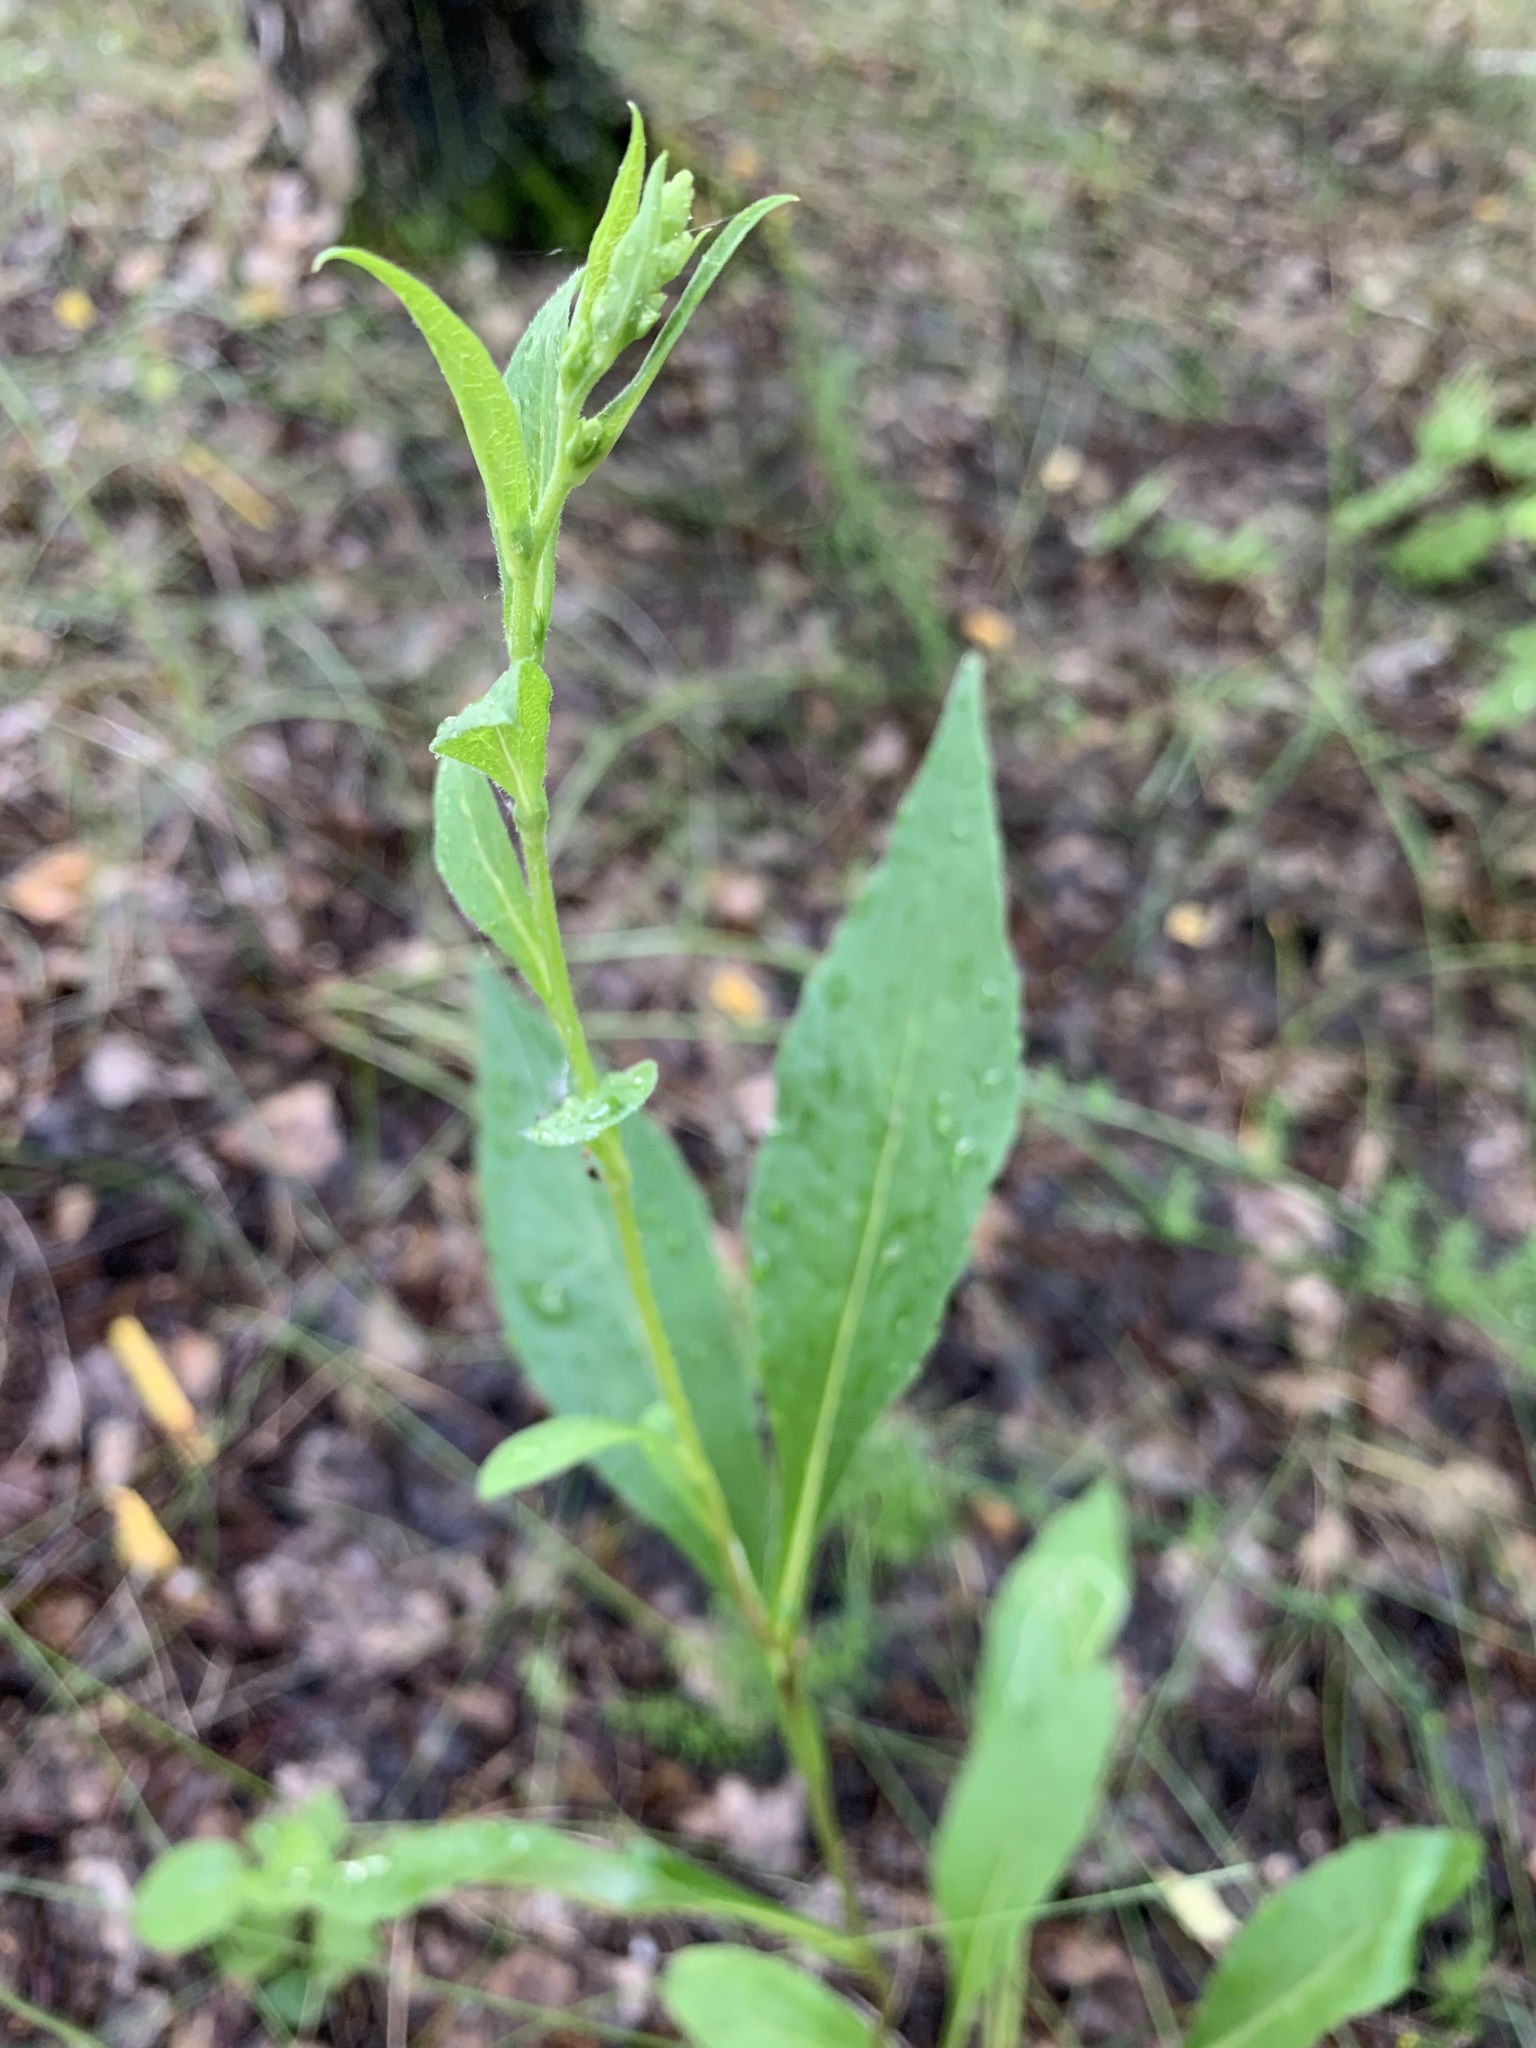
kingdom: Plantae
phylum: Tracheophyta
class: Magnoliopsida
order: Asterales
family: Asteraceae
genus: Solidago
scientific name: Solidago virgaurea
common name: Goldenrod
